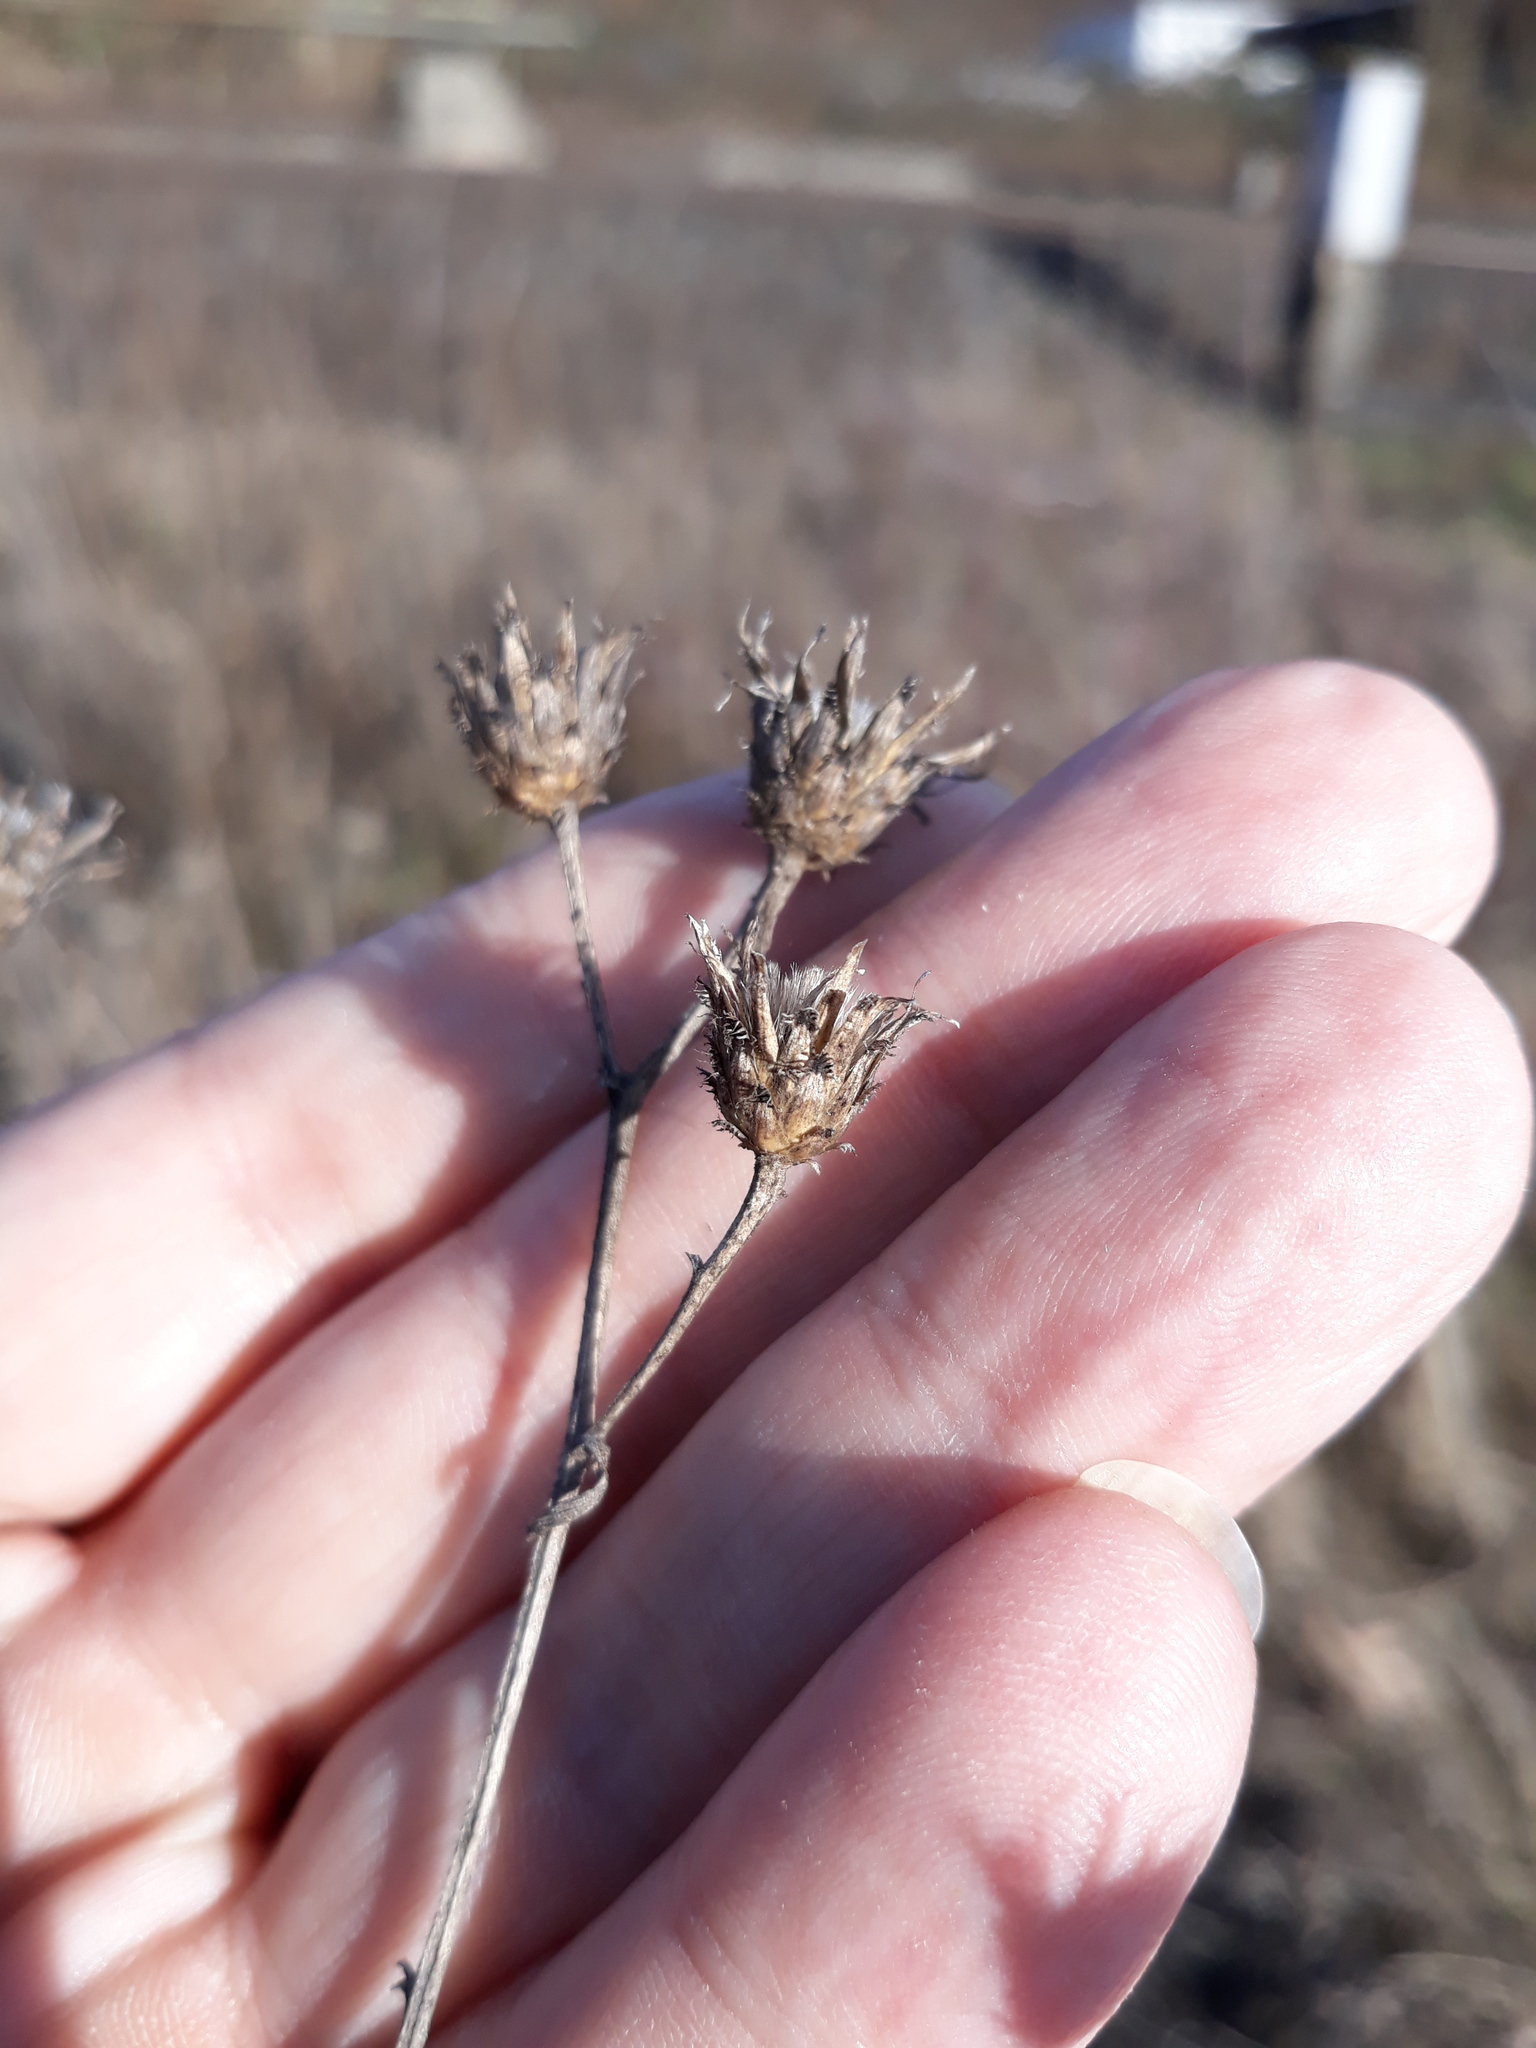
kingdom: Plantae
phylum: Tracheophyta
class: Magnoliopsida
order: Asterales
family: Asteraceae
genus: Centaurea
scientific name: Centaurea stoebe
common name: Spotted knapweed
